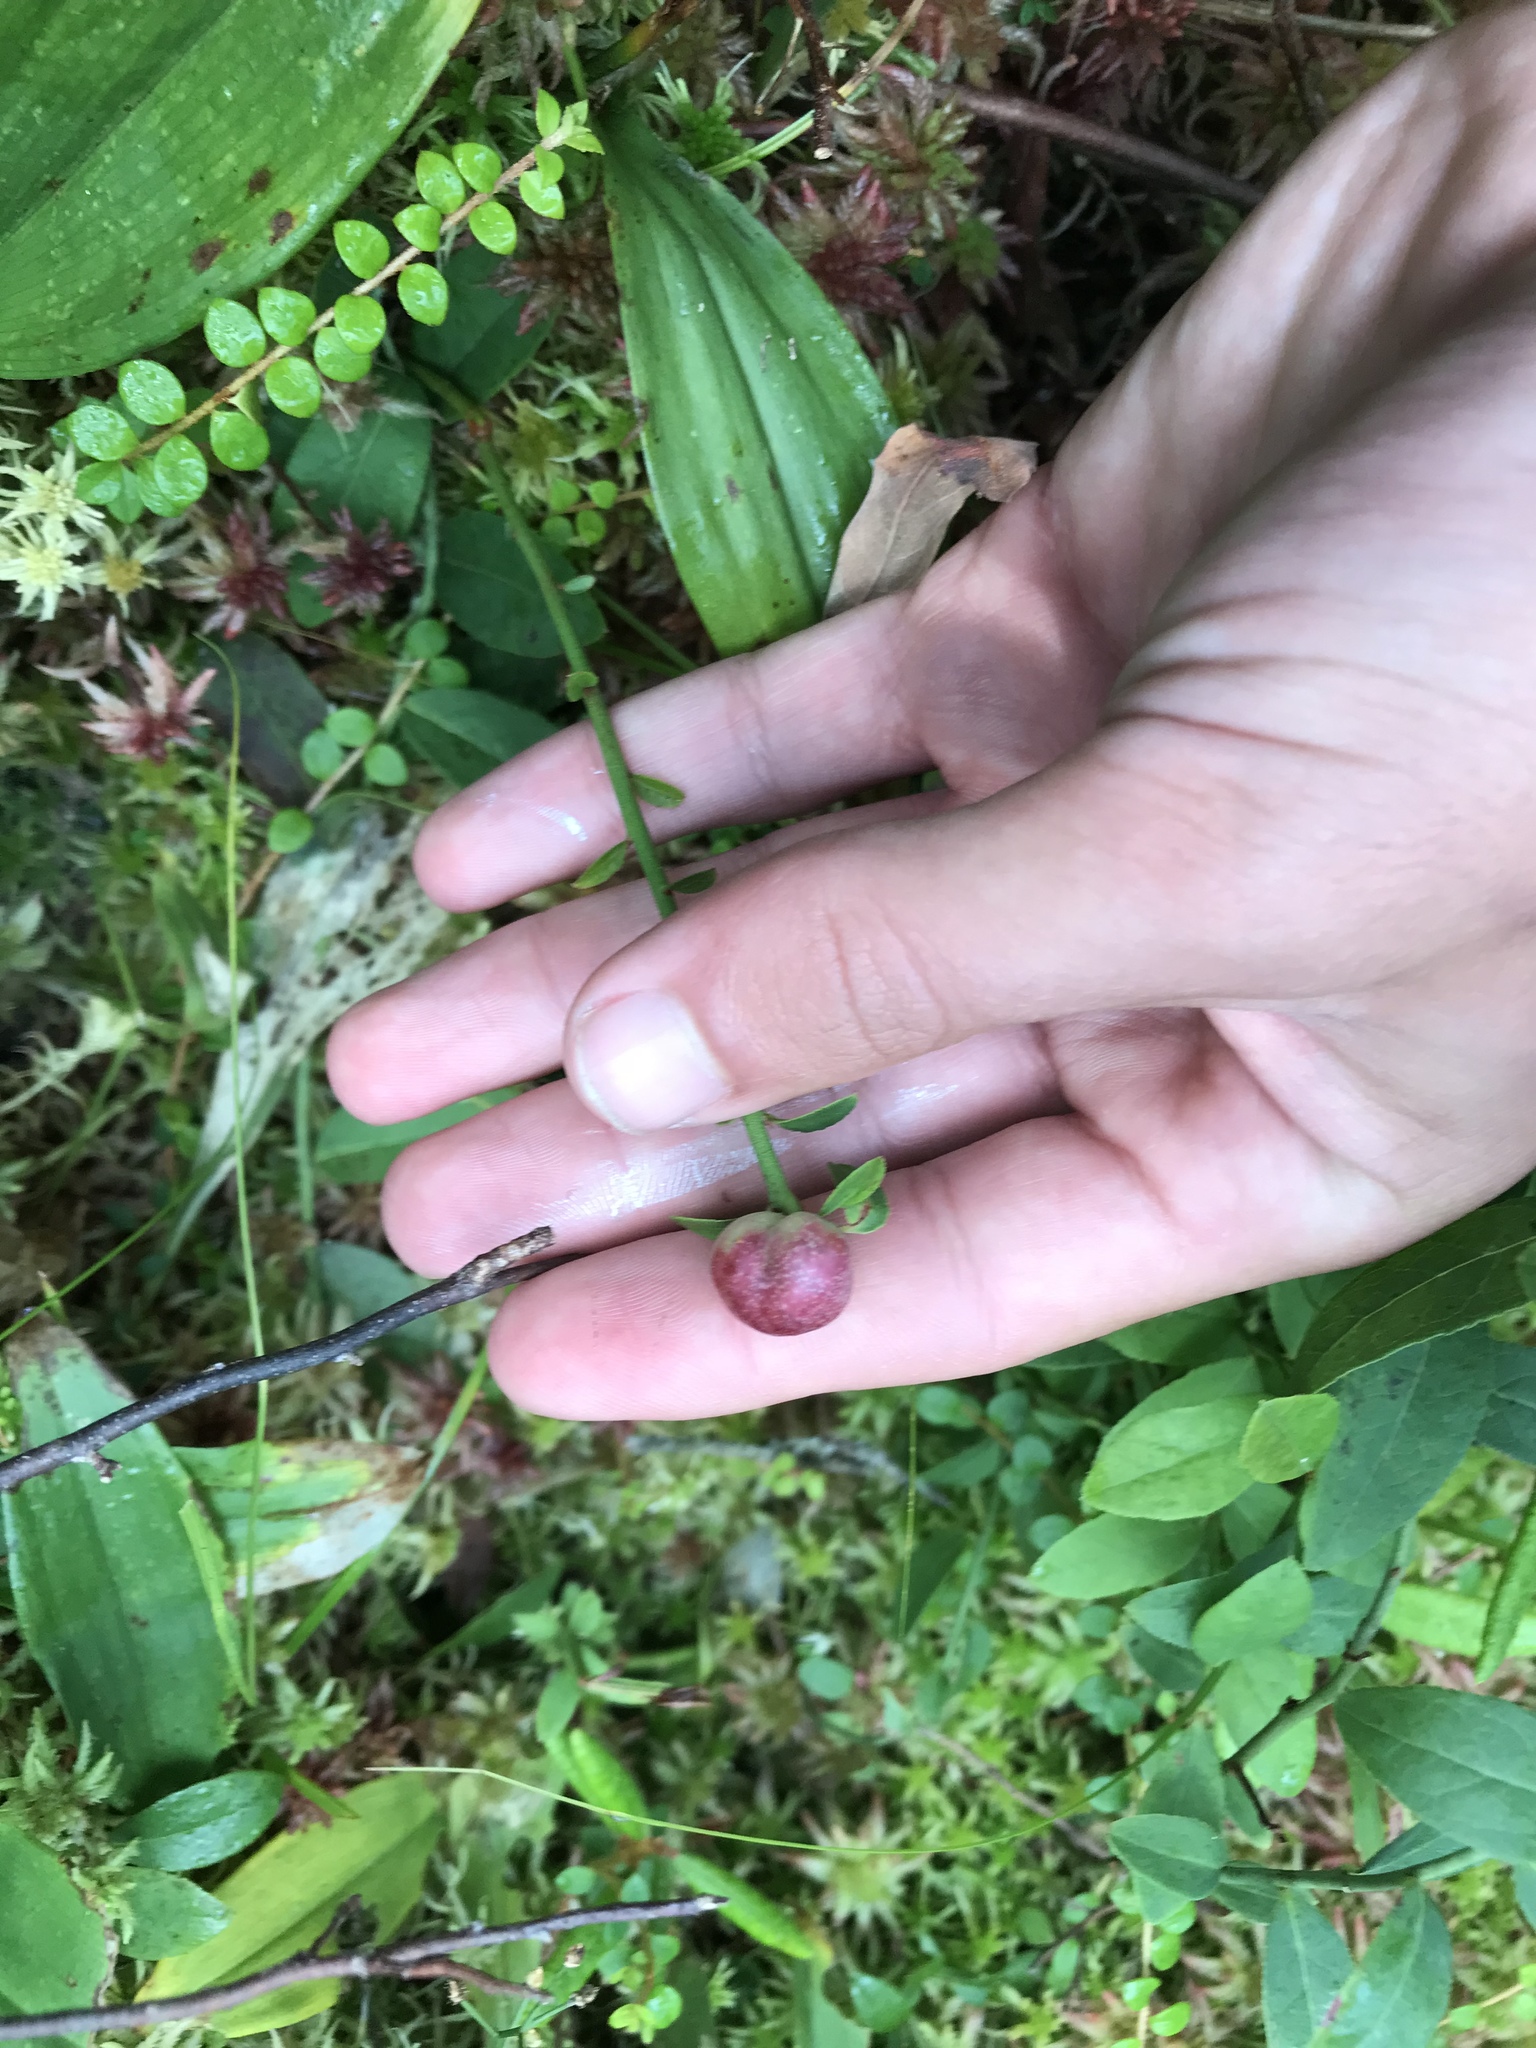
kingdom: Plantae
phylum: Tracheophyta
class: Magnoliopsida
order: Ericales
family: Ericaceae
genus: Vaccinium
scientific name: Vaccinium oxycoccos
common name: Cranberry
